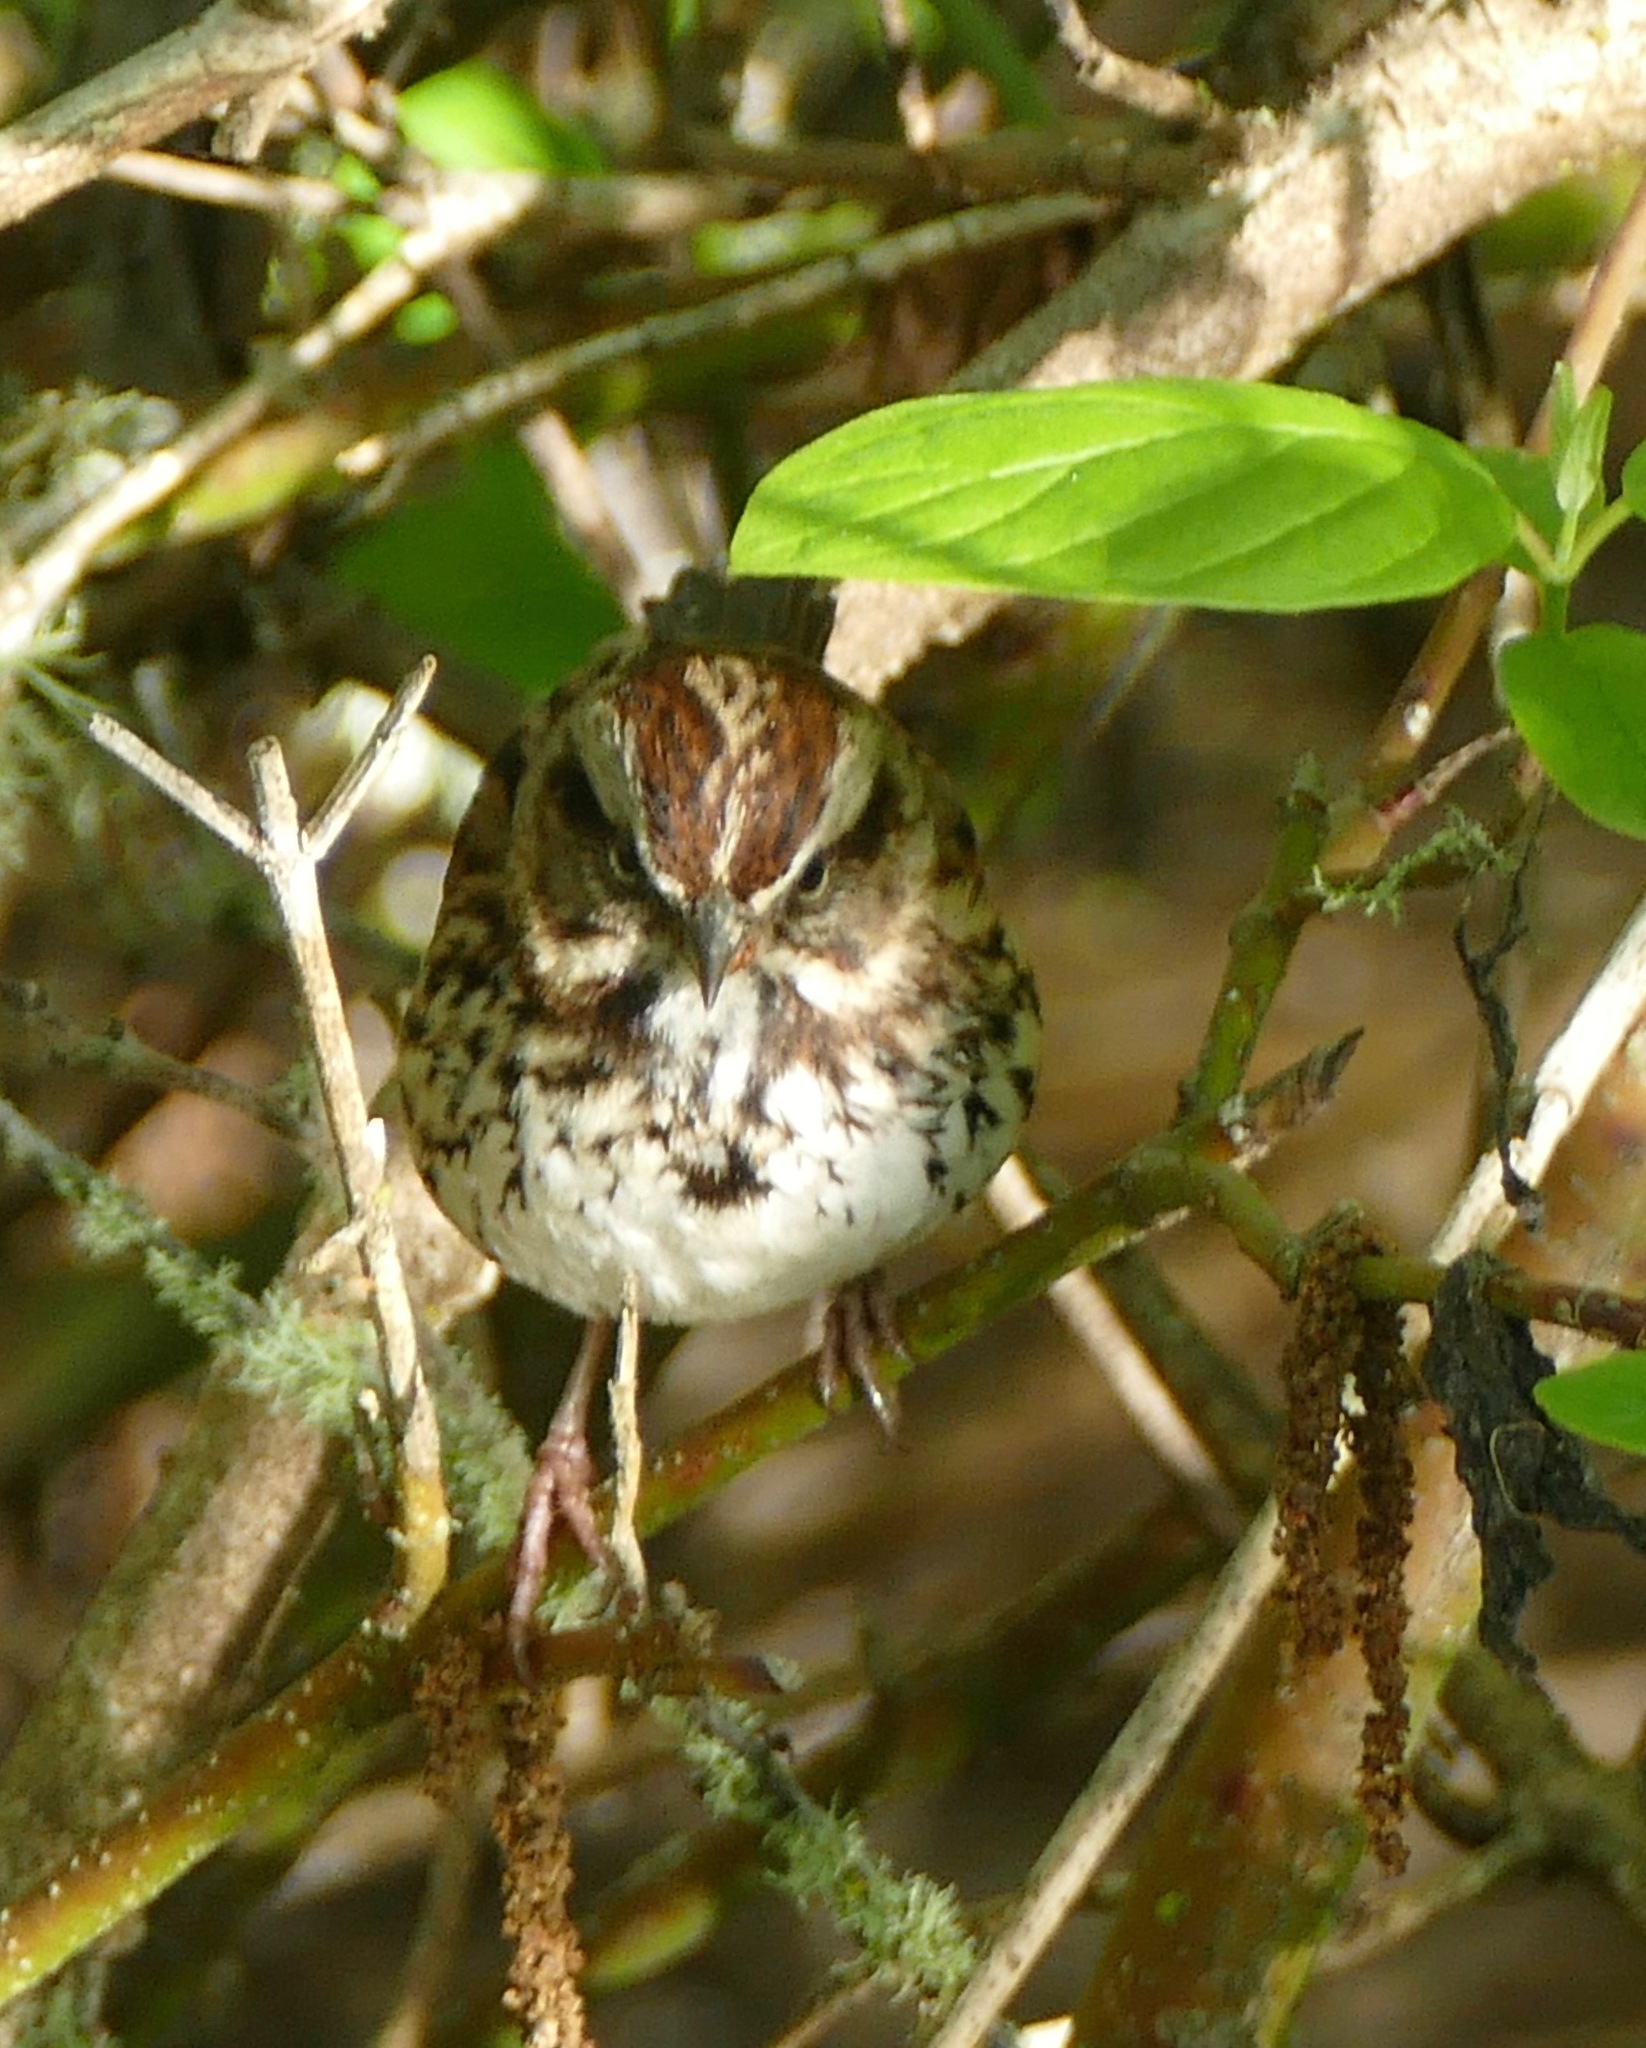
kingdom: Animalia
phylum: Chordata
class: Aves
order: Passeriformes
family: Passerellidae
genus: Melospiza
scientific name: Melospiza melodia
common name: Song sparrow
